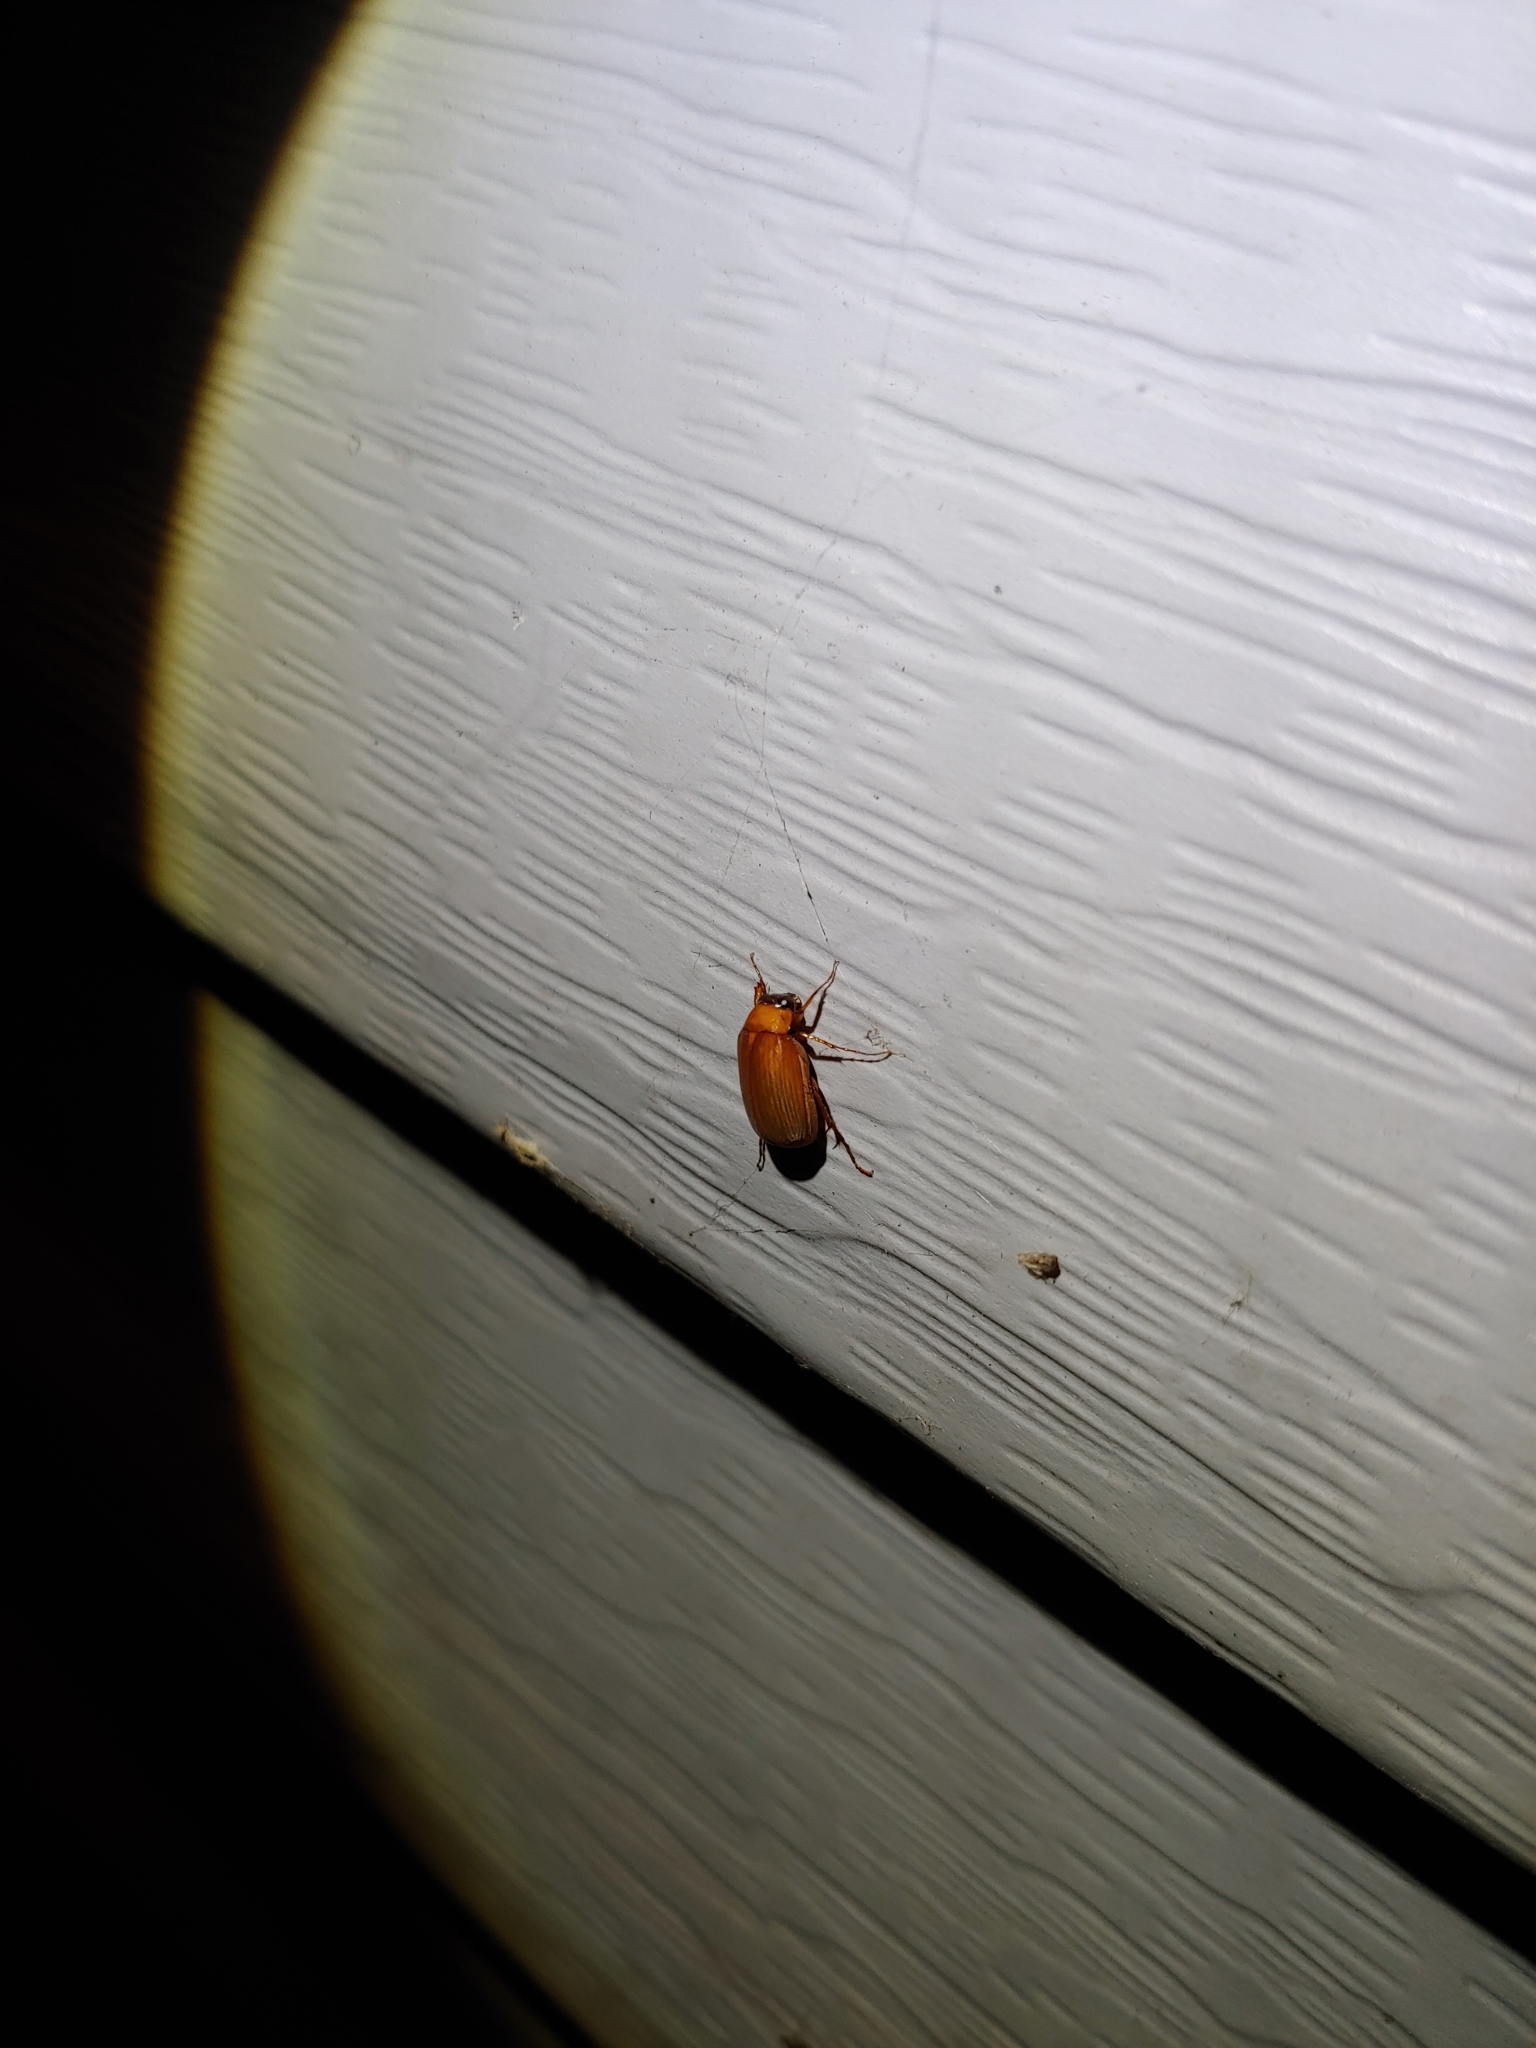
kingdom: Animalia
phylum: Arthropoda
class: Insecta
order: Coleoptera
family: Scarabaeidae
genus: Nipponoserica
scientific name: Nipponoserica peregrina
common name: Scarab beetle
